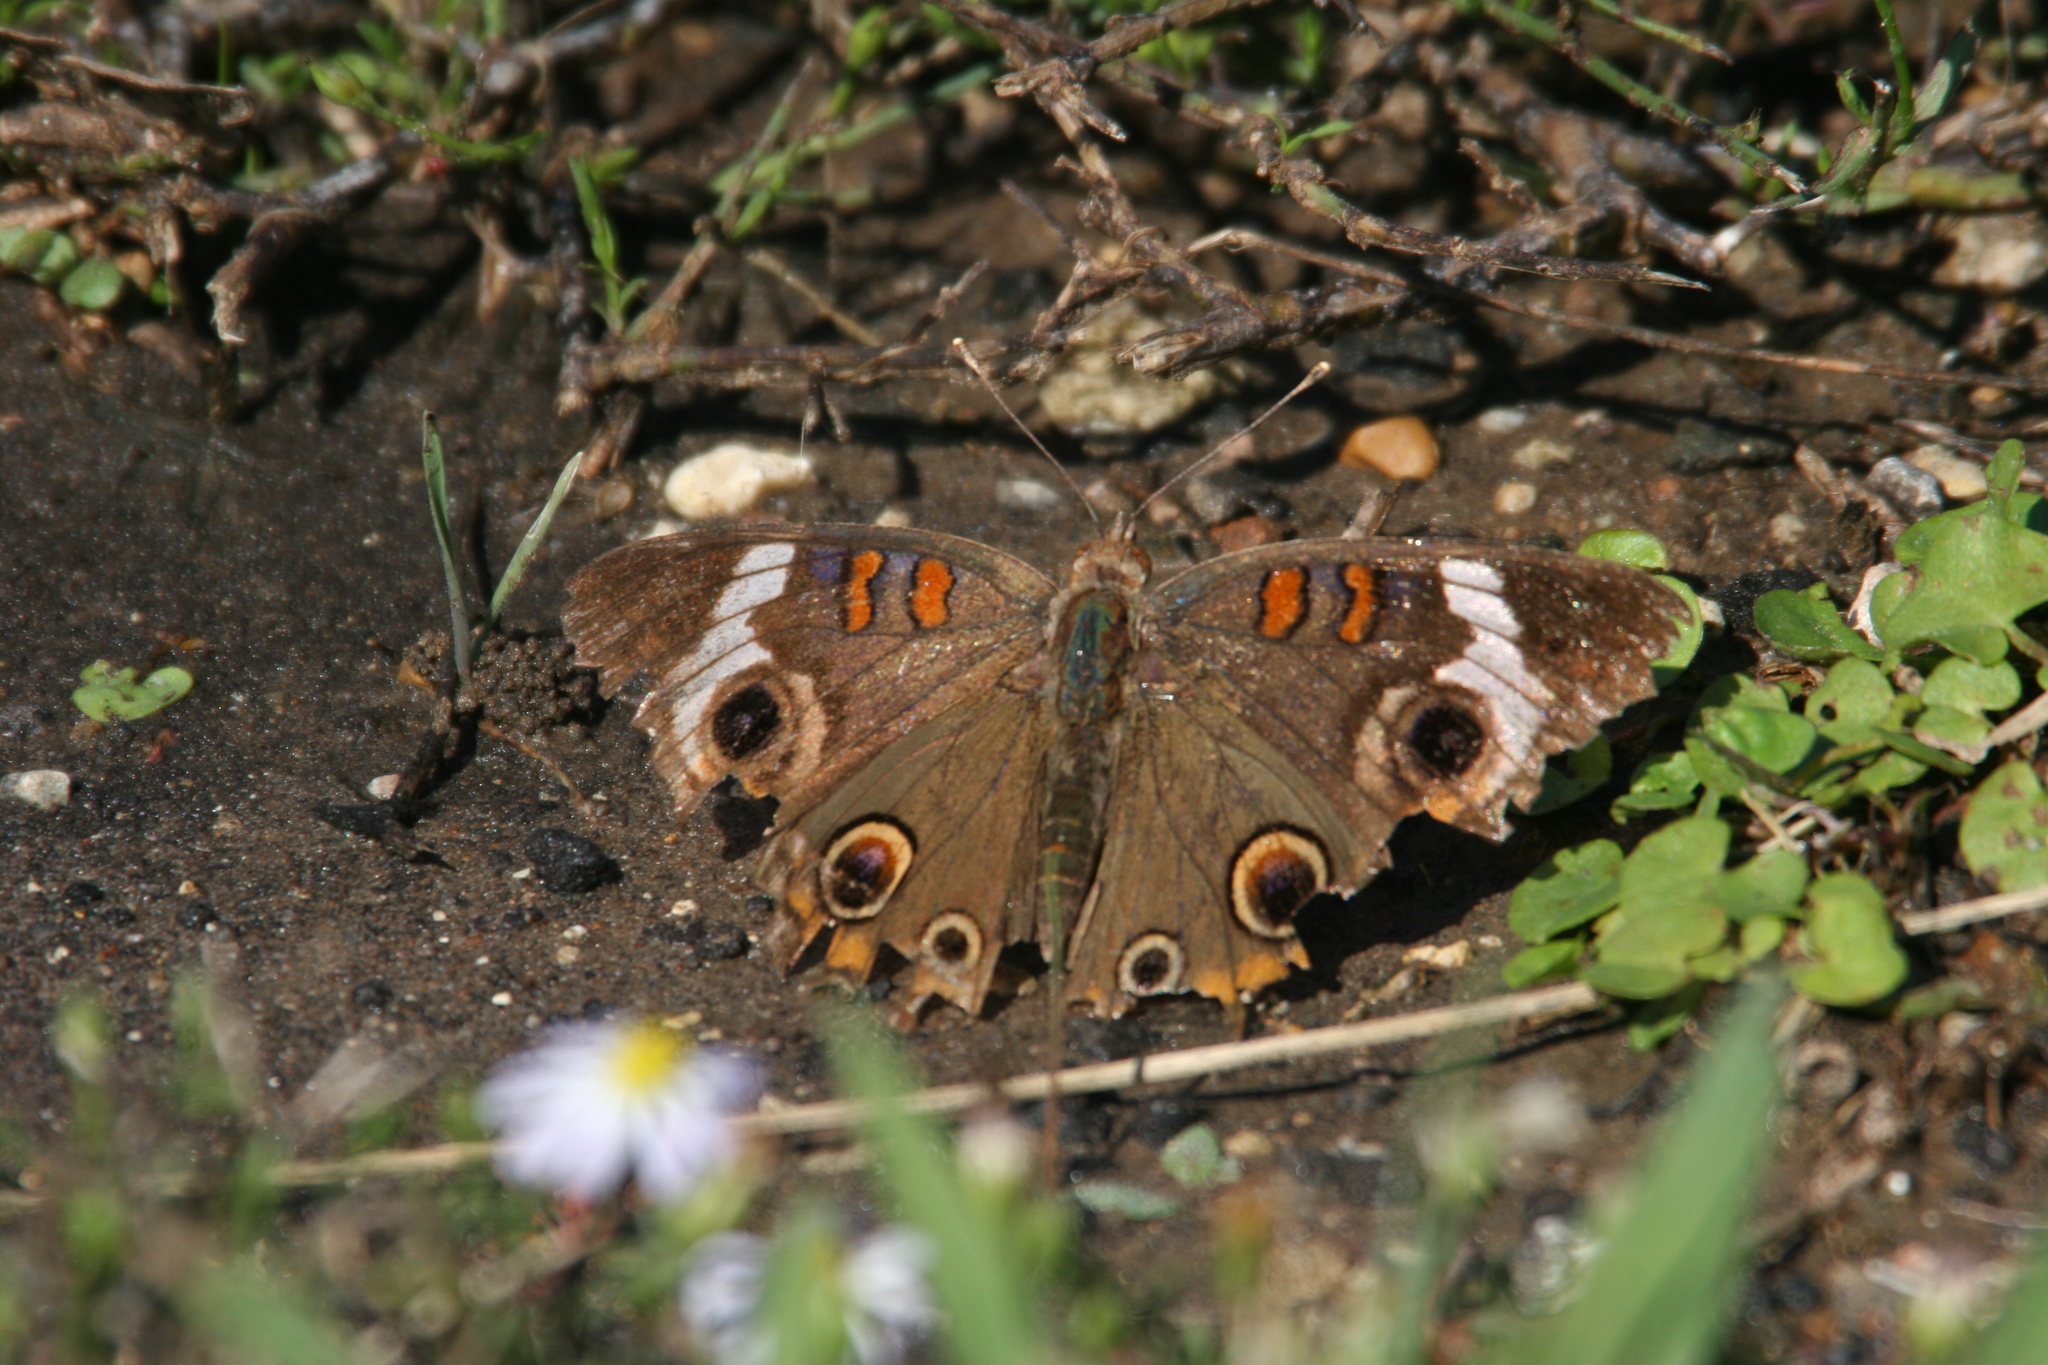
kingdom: Animalia
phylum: Arthropoda
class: Insecta
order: Lepidoptera
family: Nymphalidae
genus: Junonia
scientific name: Junonia coenia
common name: Common buckeye
